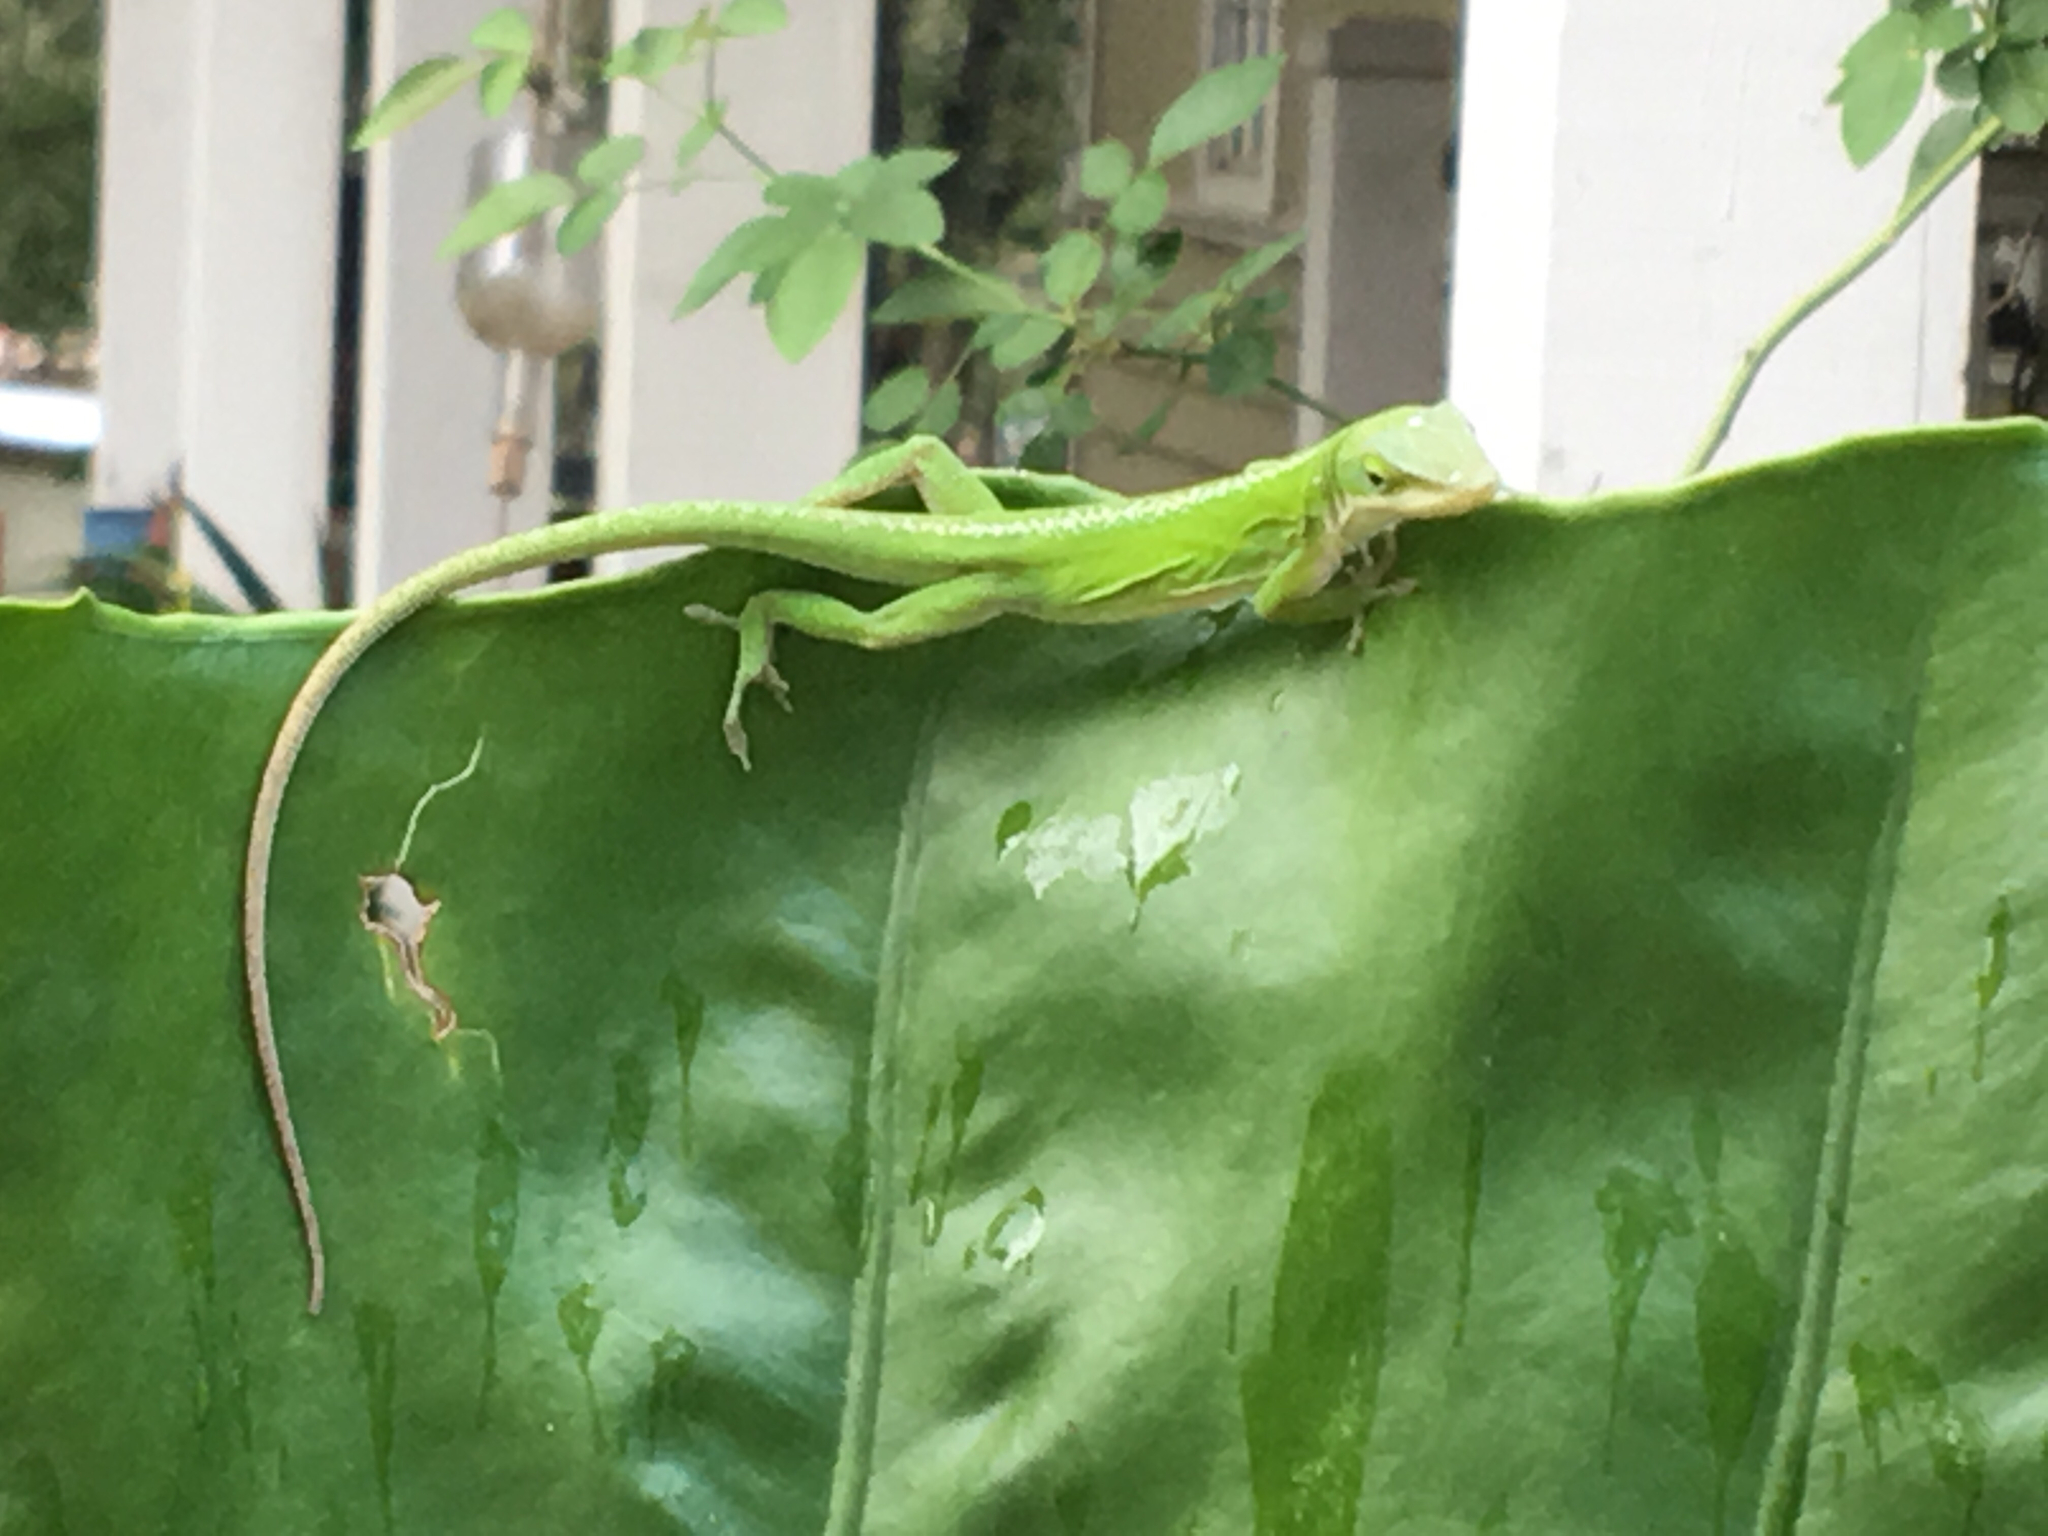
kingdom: Animalia
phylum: Chordata
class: Squamata
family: Dactyloidae
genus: Anolis
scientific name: Anolis carolinensis
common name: Green anole
